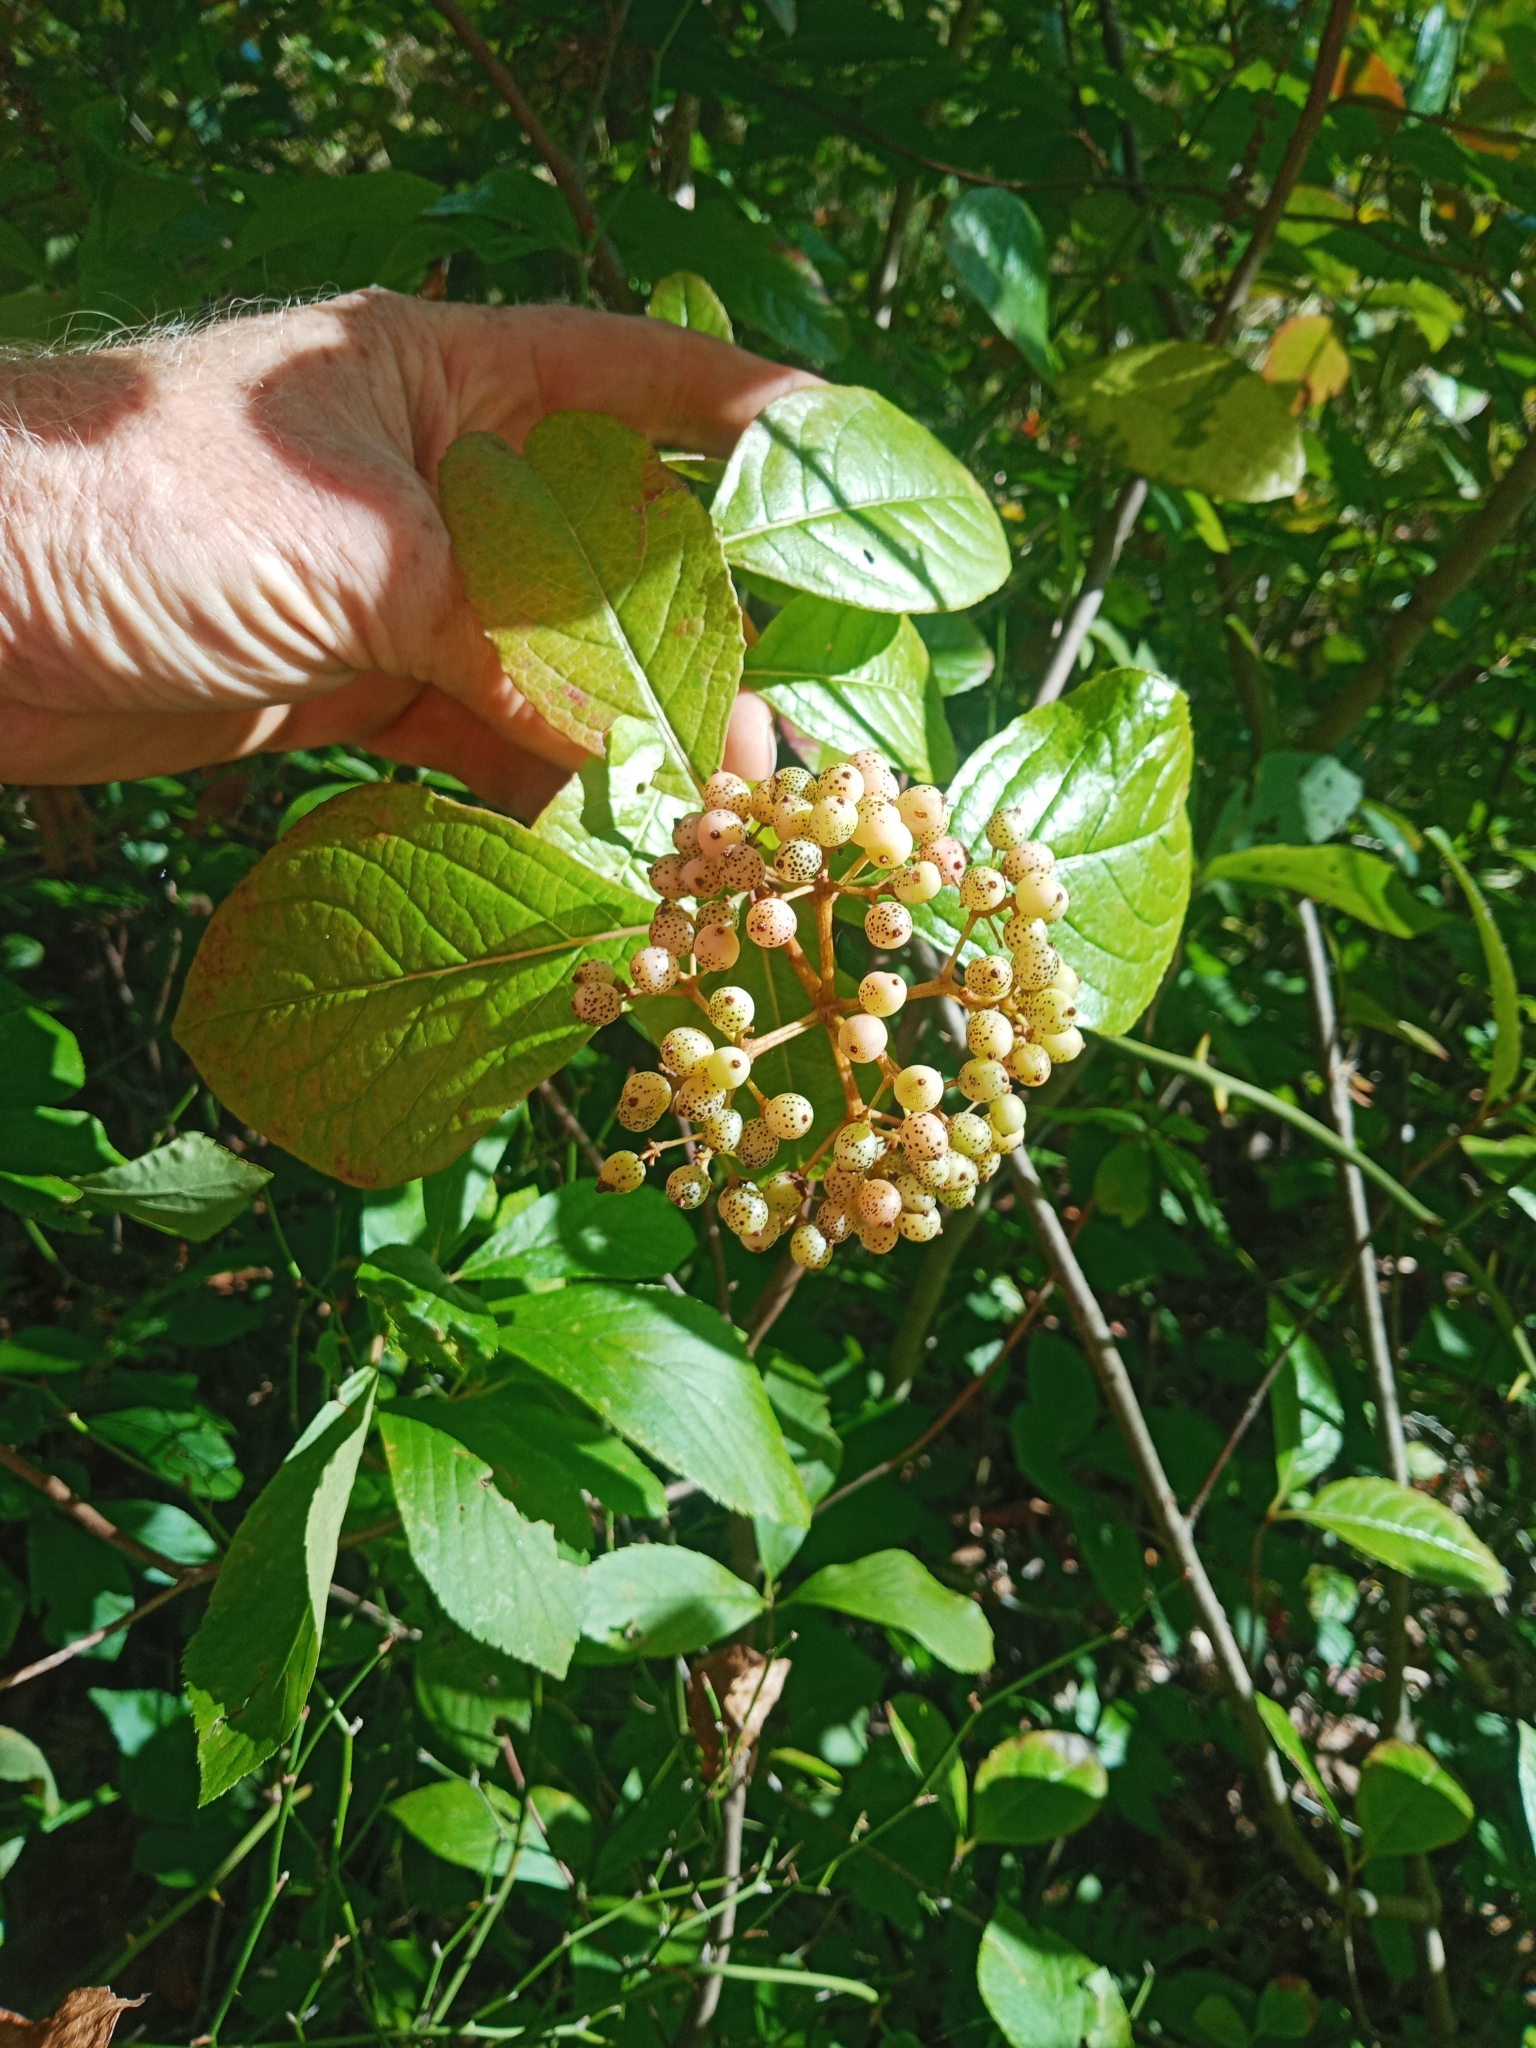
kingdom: Plantae
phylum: Tracheophyta
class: Magnoliopsida
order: Dipsacales
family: Viburnaceae
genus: Viburnum
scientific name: Viburnum cassinoides
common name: Swamp haw
